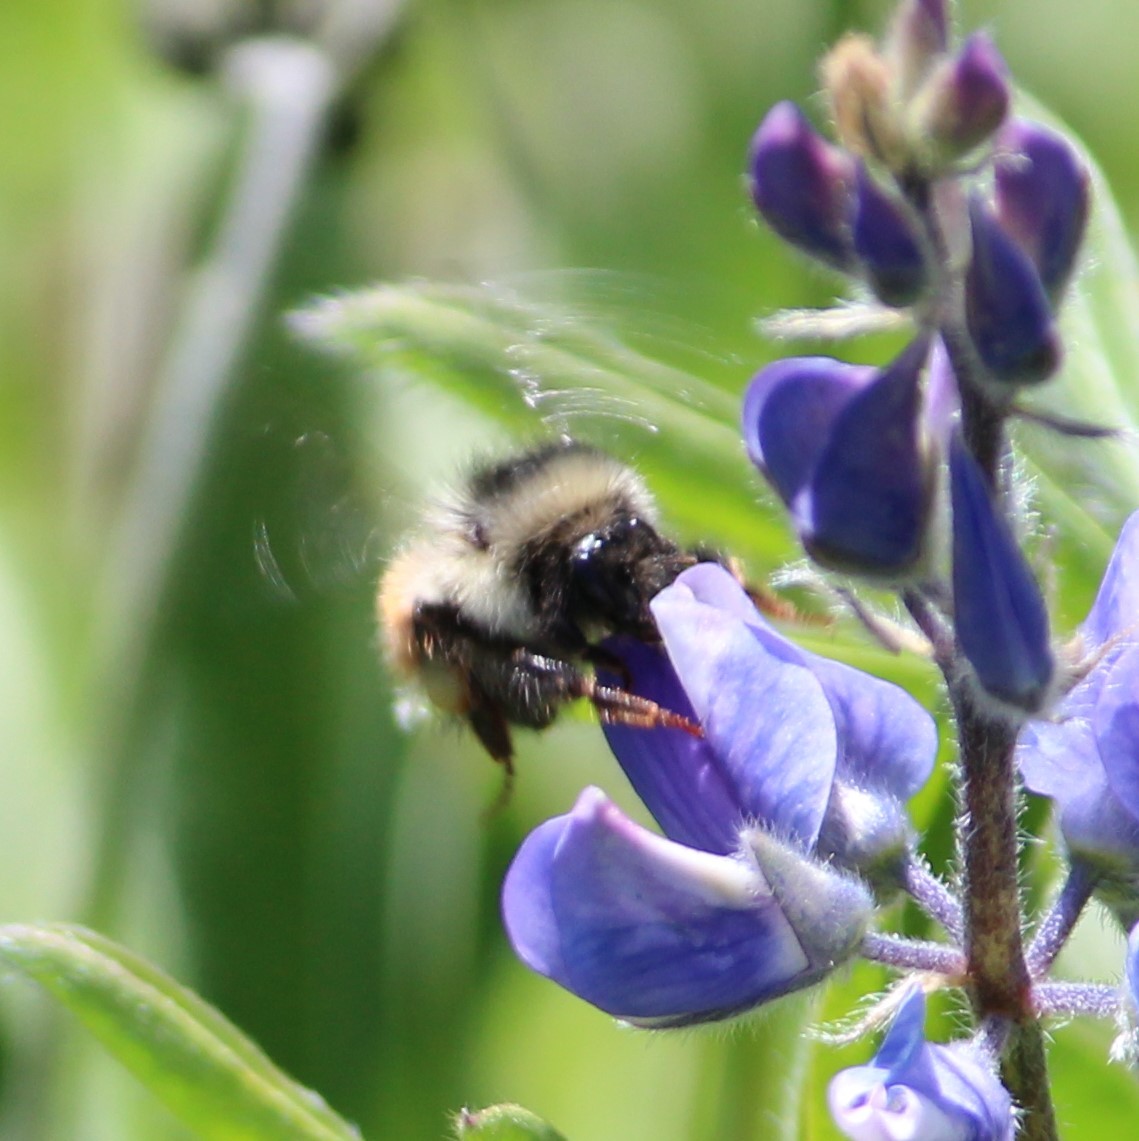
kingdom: Animalia
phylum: Arthropoda
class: Insecta
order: Hymenoptera
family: Apidae
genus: Bombus
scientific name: Bombus sylvicola
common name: Forest bumble bee
